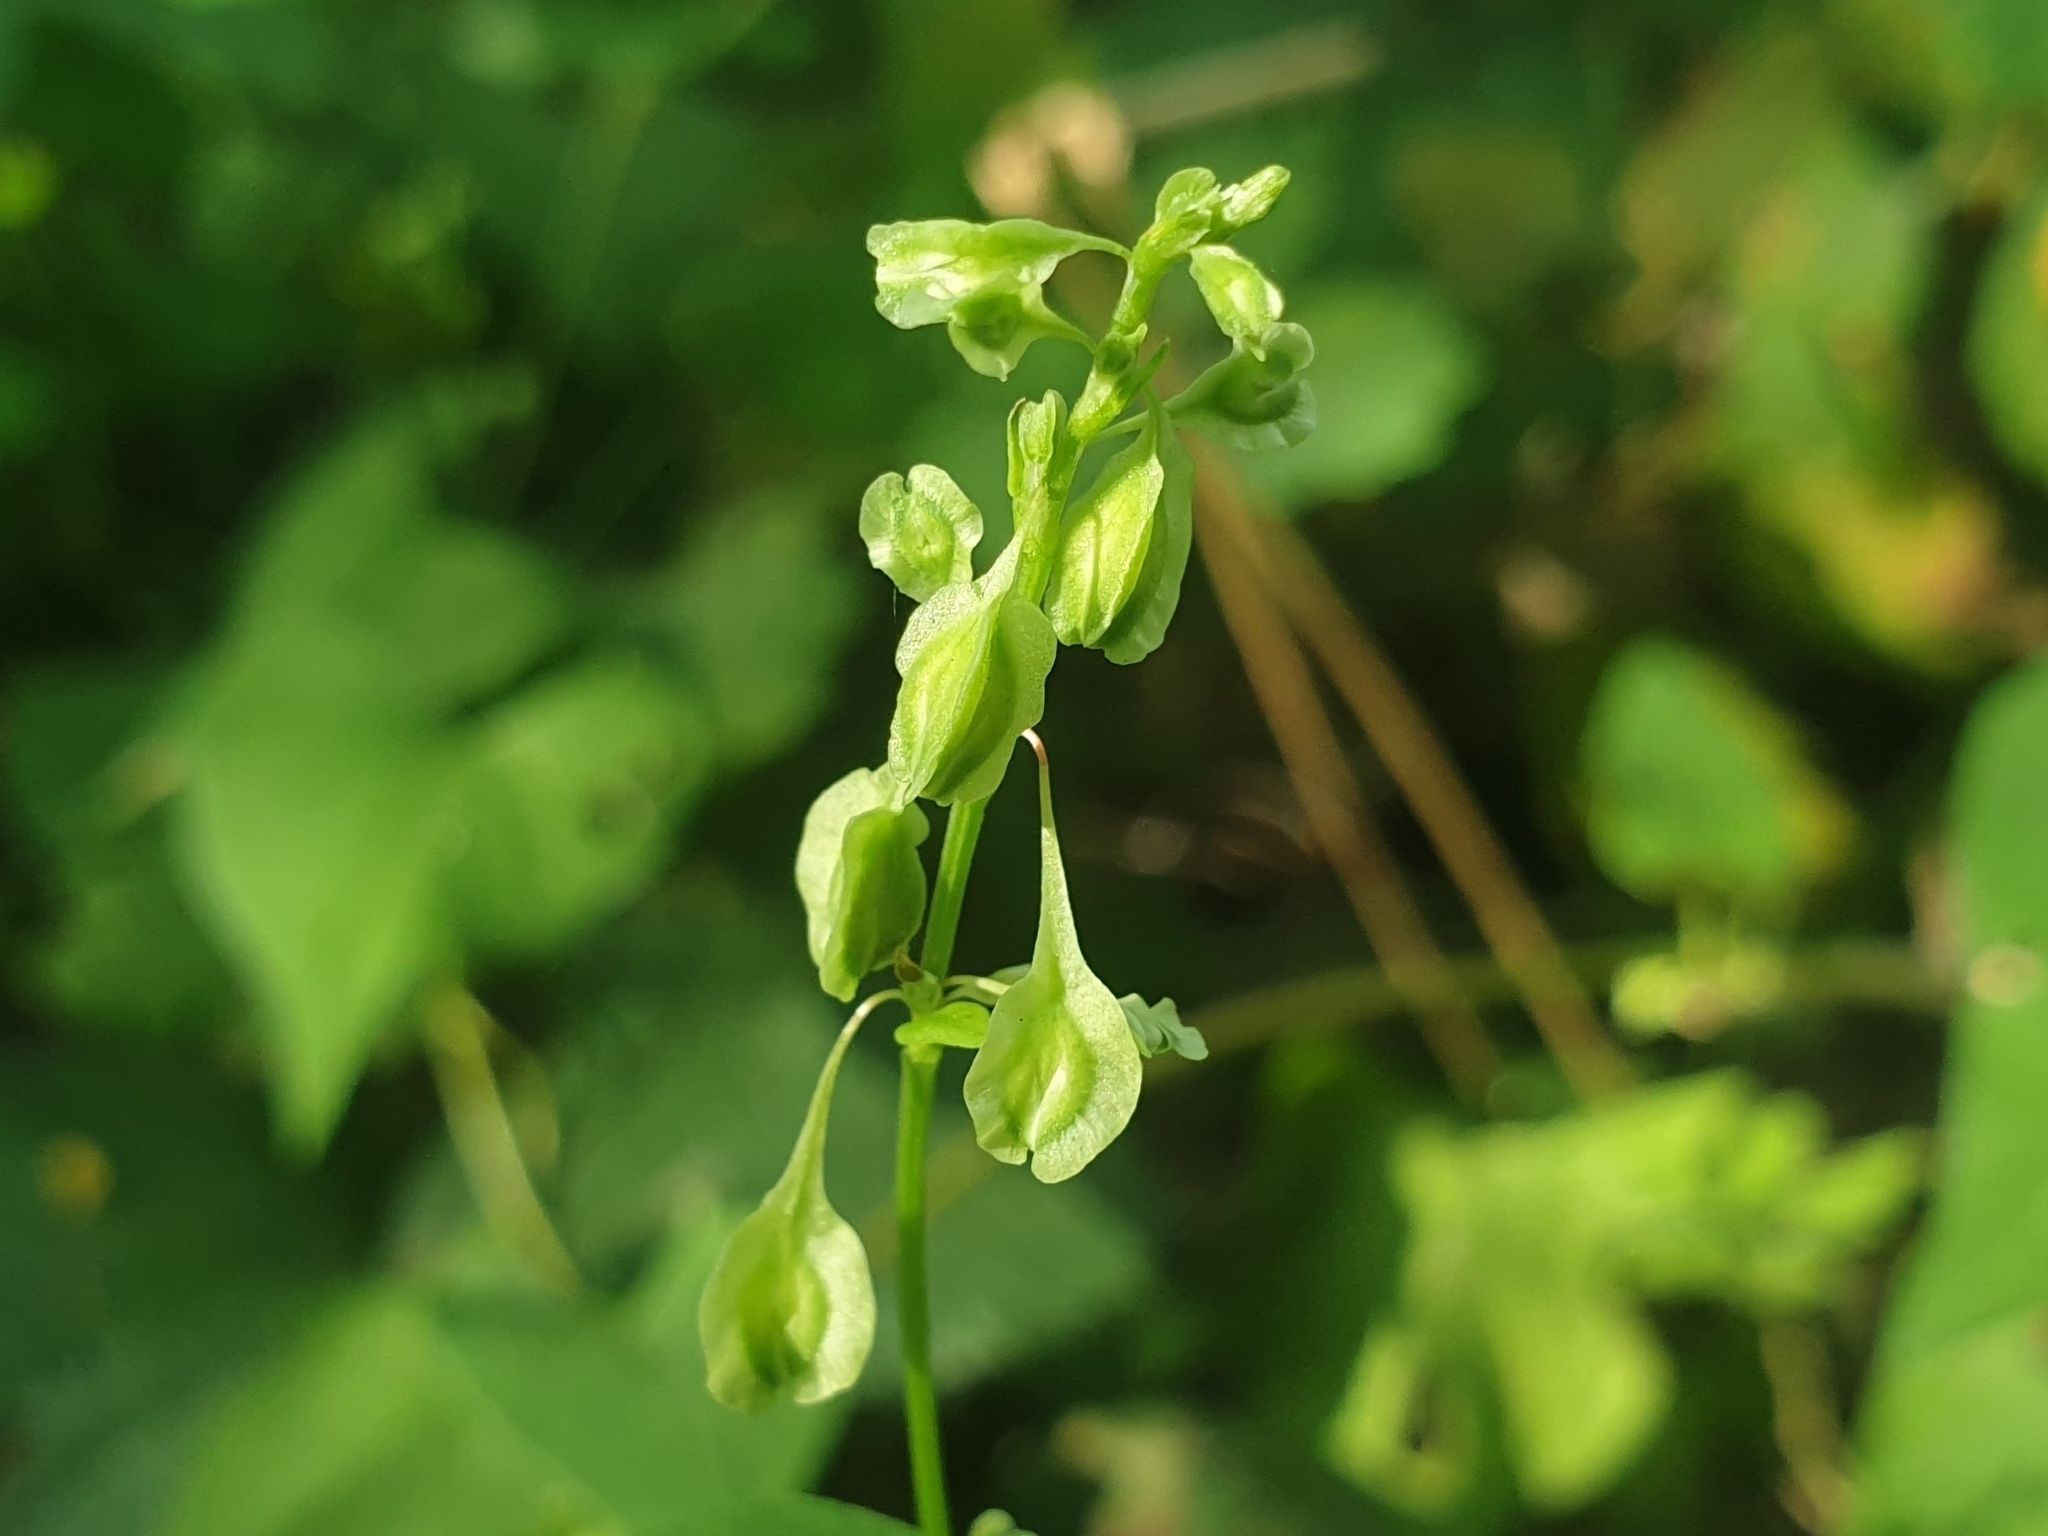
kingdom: Plantae
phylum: Tracheophyta
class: Magnoliopsida
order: Caryophyllales
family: Polygonaceae
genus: Fallopia
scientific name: Fallopia dumetorum
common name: Copse-bindweed
